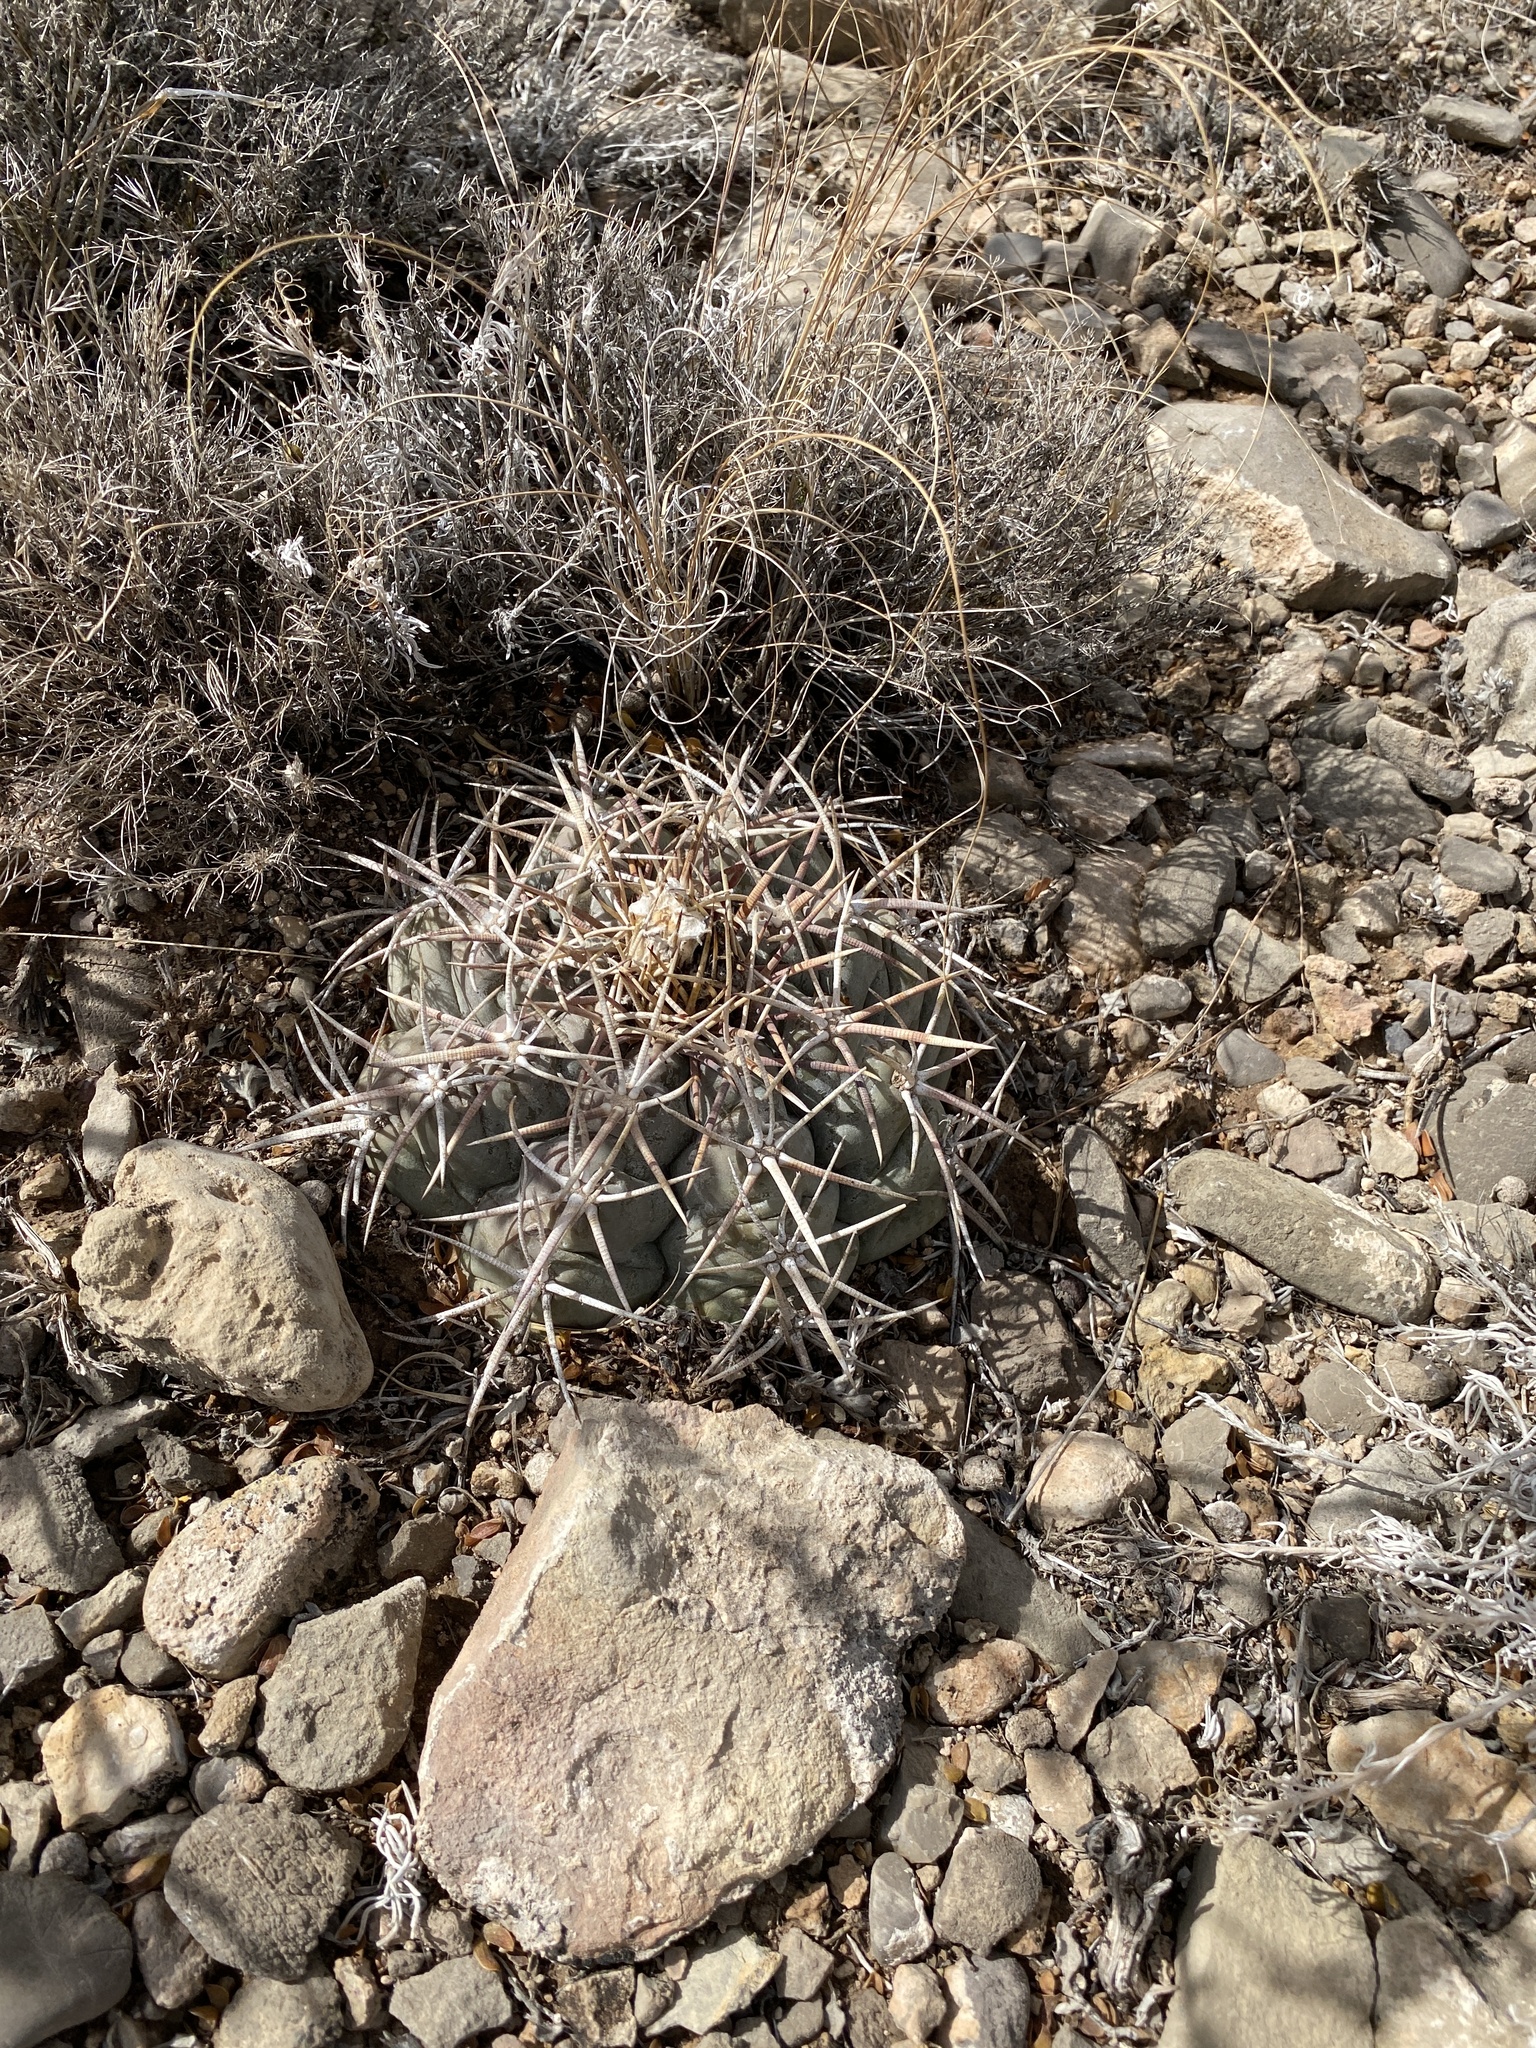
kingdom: Plantae
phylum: Tracheophyta
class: Magnoliopsida
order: Caryophyllales
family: Cactaceae
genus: Echinocactus
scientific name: Echinocactus horizonthalonius
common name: Devilshead
